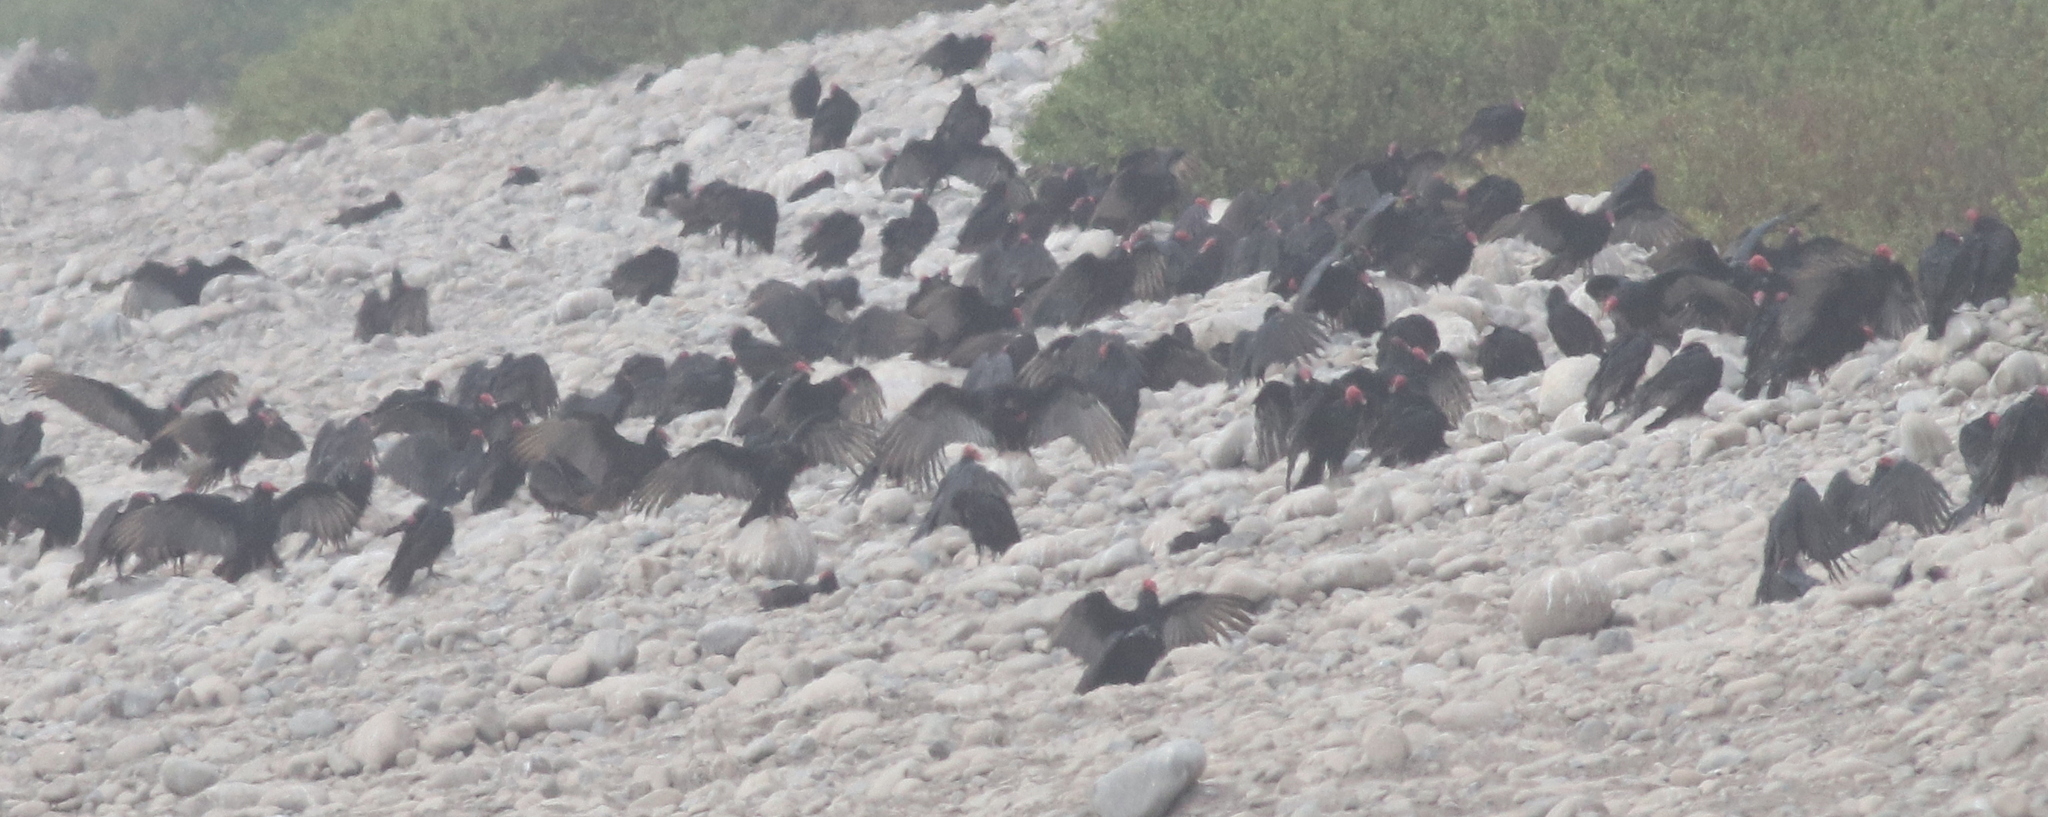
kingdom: Animalia
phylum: Chordata
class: Aves
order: Accipitriformes
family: Cathartidae
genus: Cathartes
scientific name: Cathartes aura
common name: Turkey vulture
